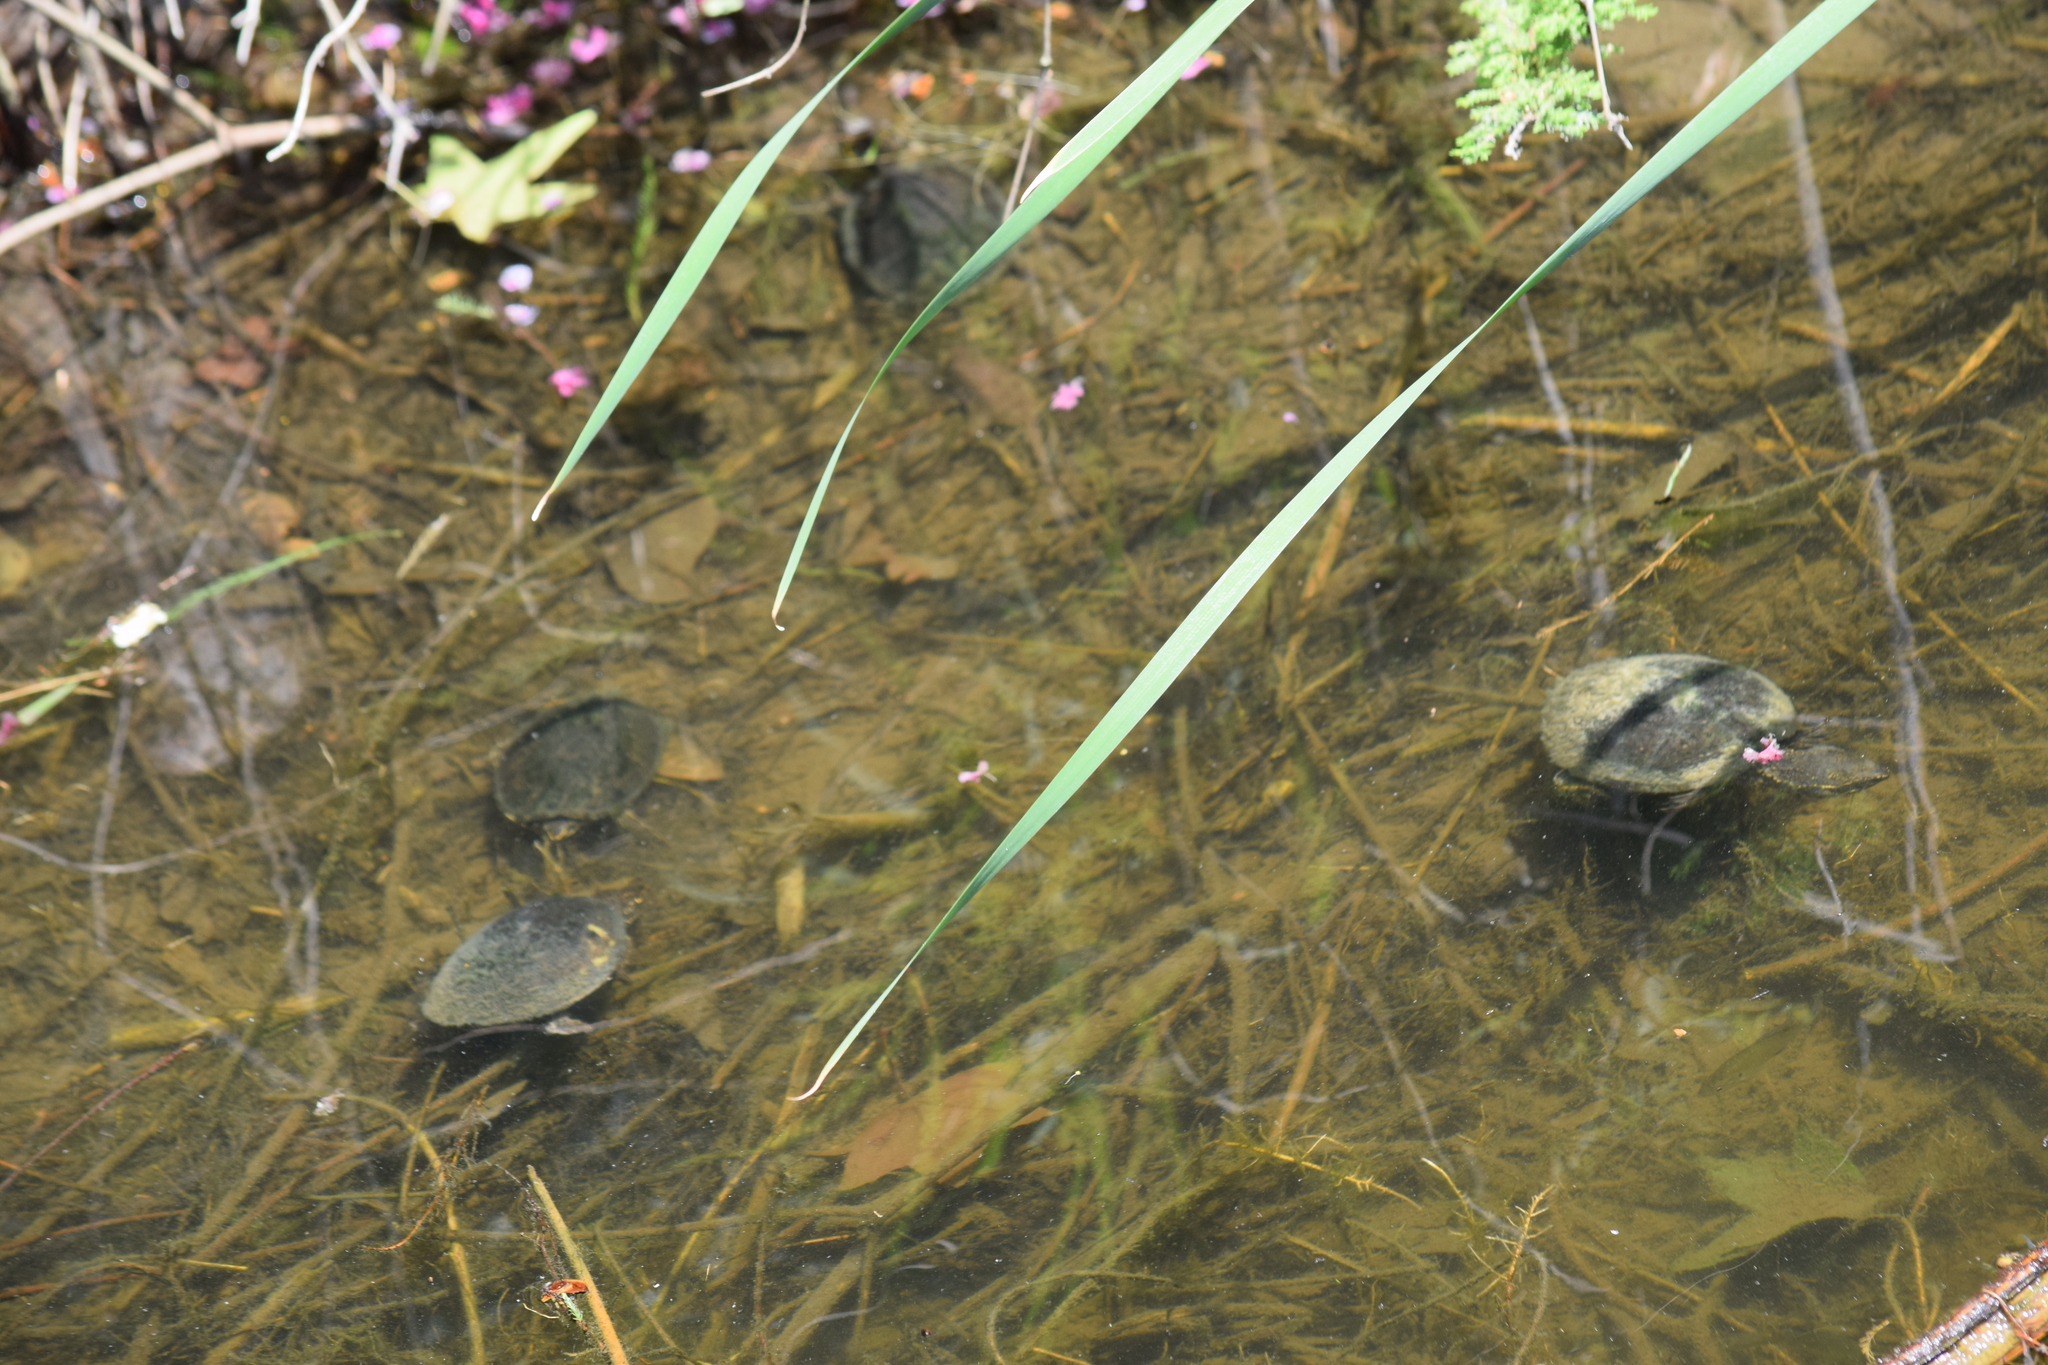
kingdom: Animalia
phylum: Chordata
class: Testudines
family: Kinosternidae
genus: Sternotherus
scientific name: Sternotherus odoratus
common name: Common musk turtle
